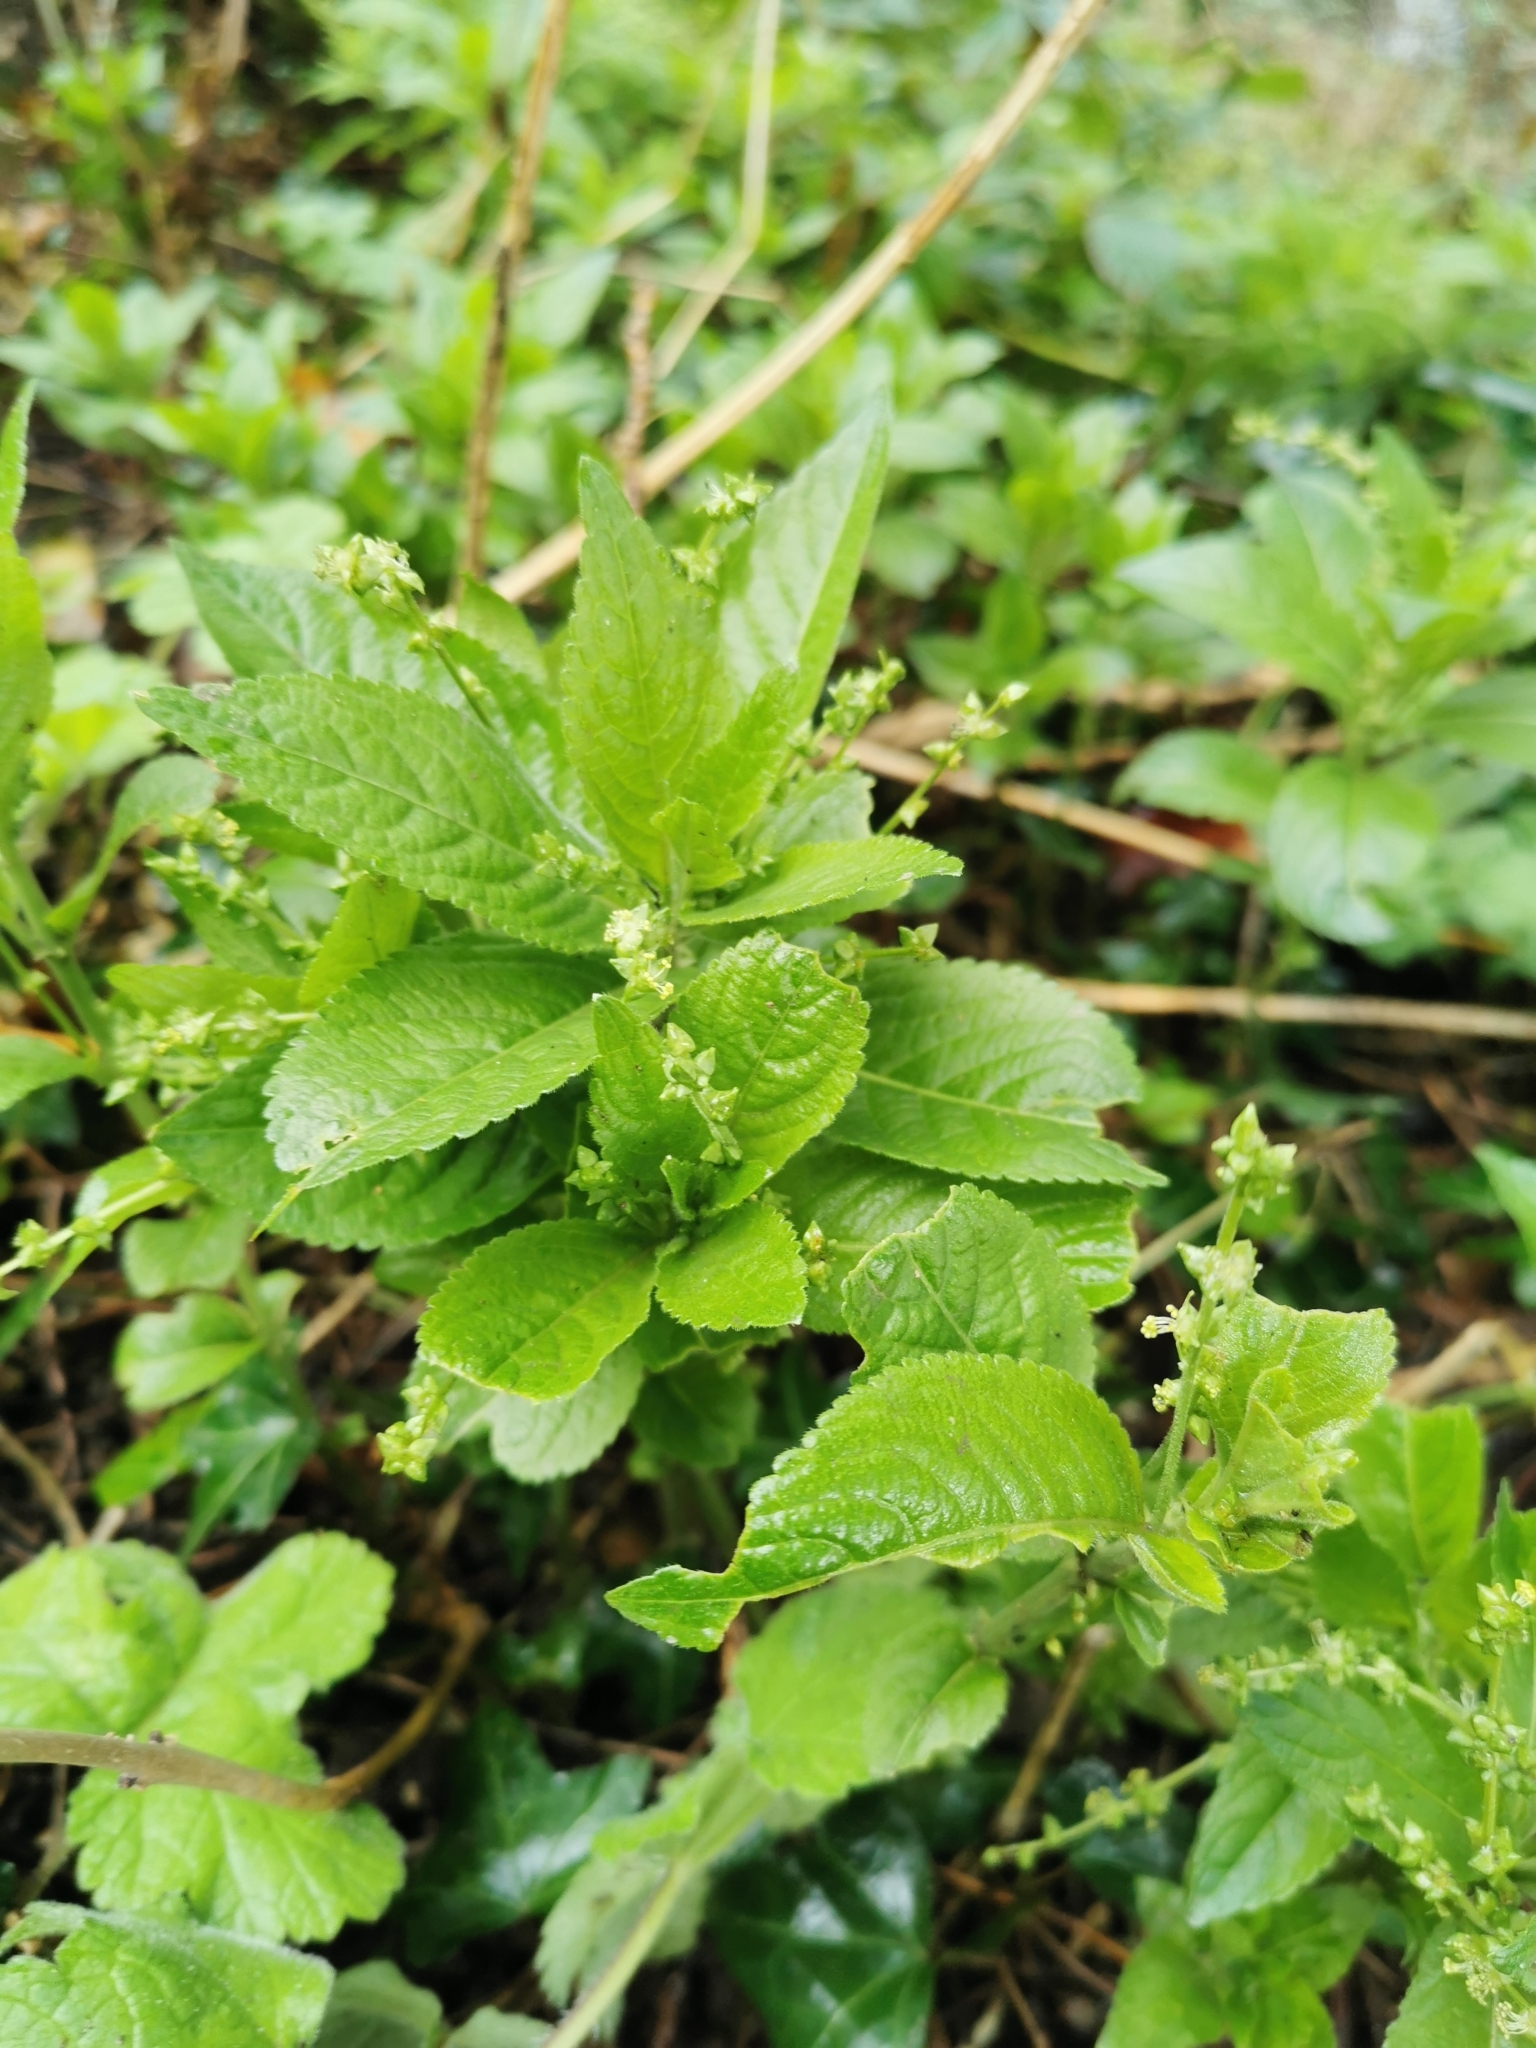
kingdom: Plantae
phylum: Tracheophyta
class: Magnoliopsida
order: Malpighiales
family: Euphorbiaceae
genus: Mercurialis
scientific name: Mercurialis perennis
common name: Dog mercury
